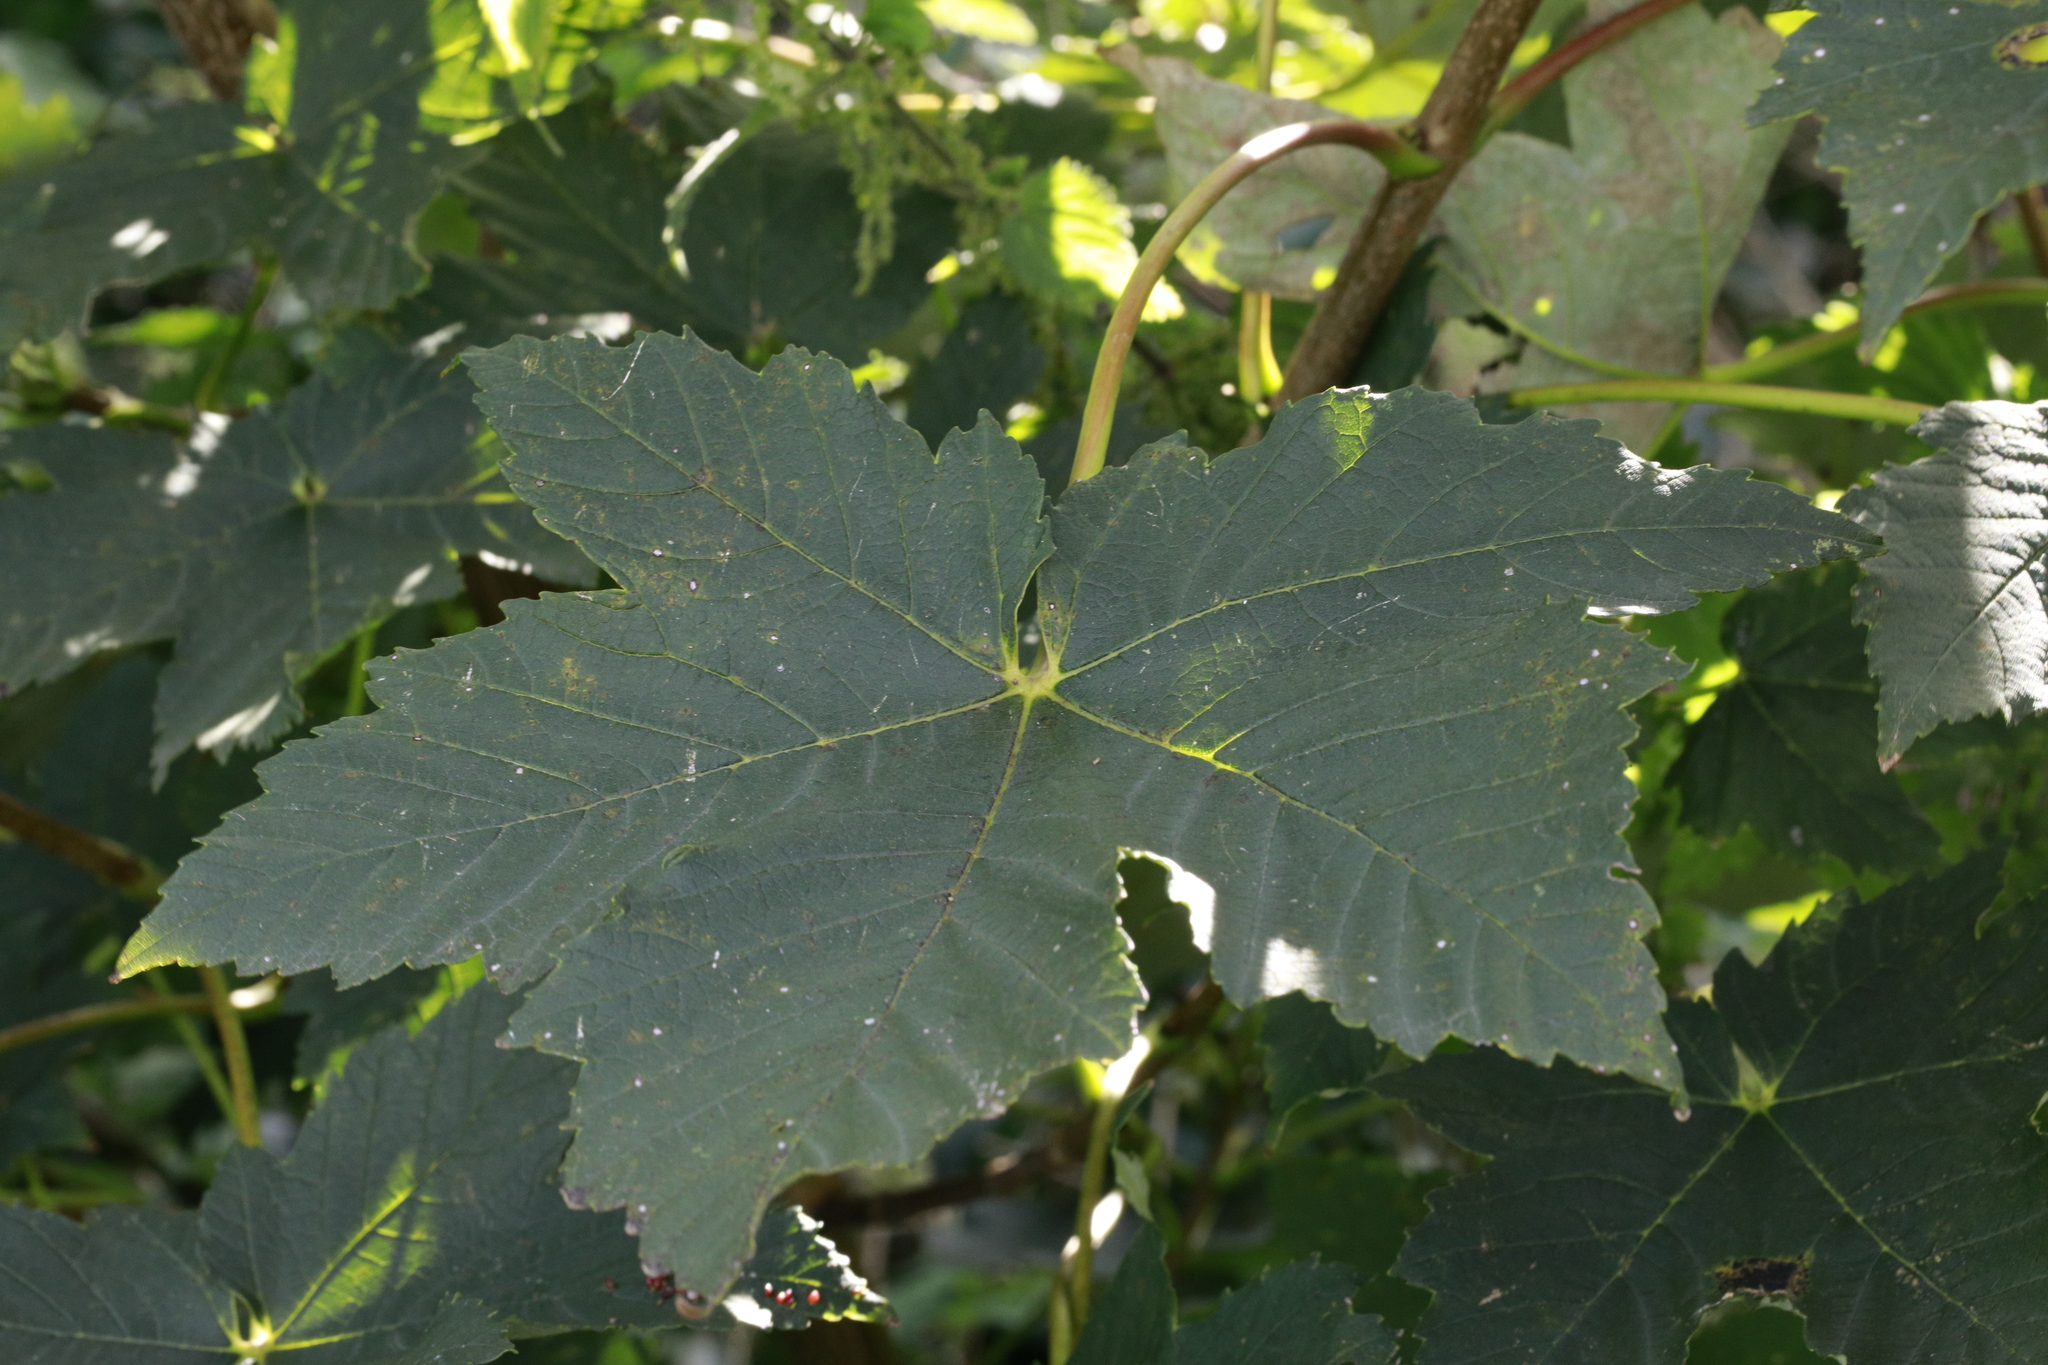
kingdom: Plantae
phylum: Tracheophyta
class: Magnoliopsida
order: Sapindales
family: Sapindaceae
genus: Acer
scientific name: Acer pseudoplatanus
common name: Sycamore
